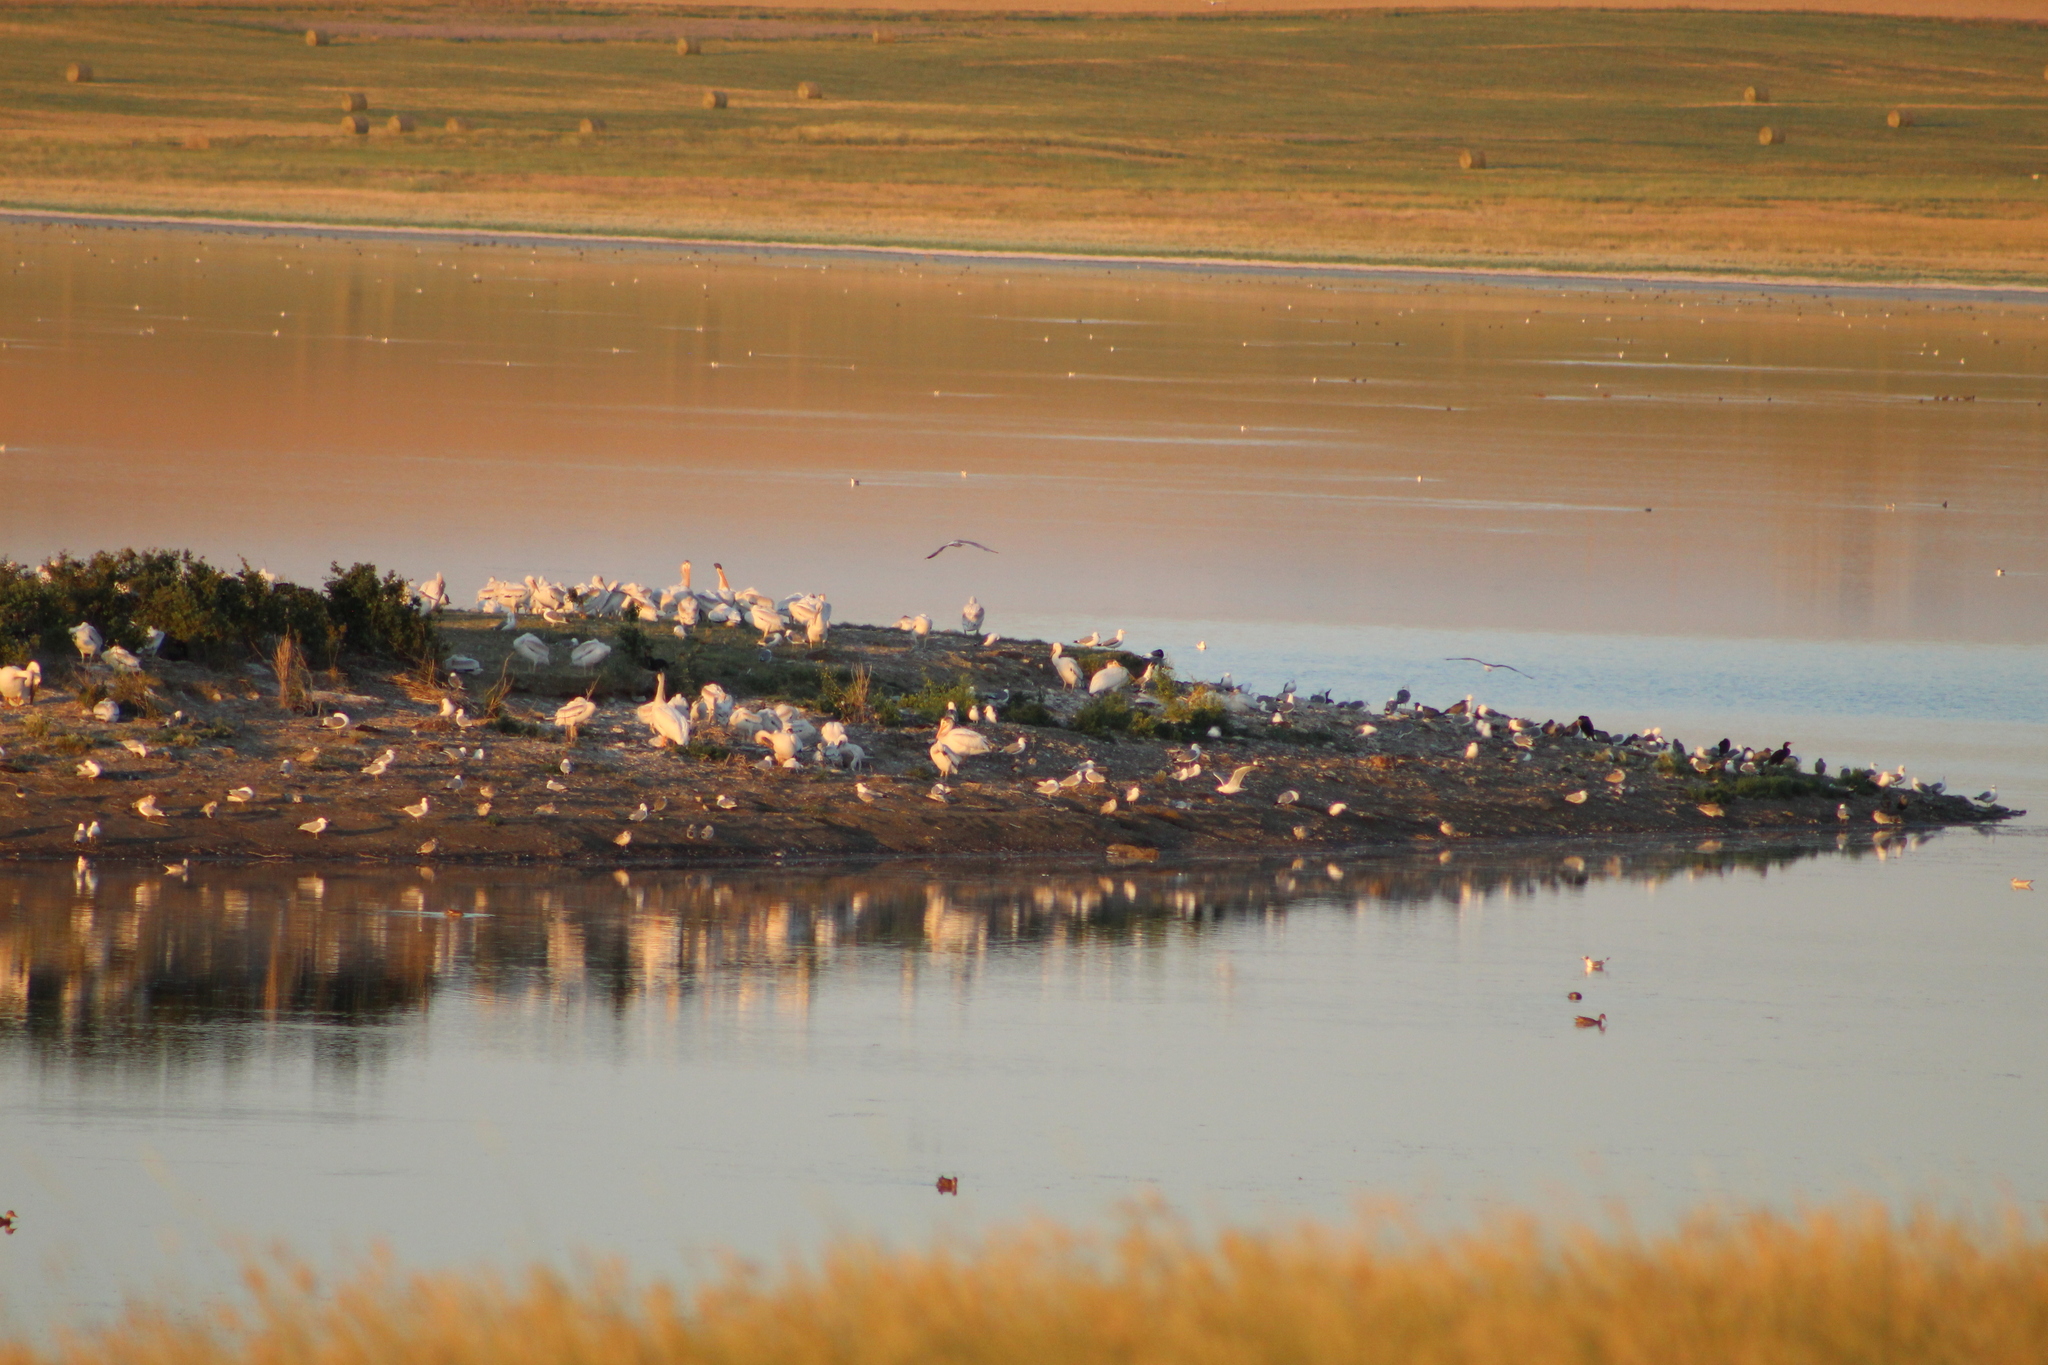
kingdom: Animalia
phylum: Chordata
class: Aves
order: Pelecaniformes
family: Pelecanidae
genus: Pelecanus
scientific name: Pelecanus erythrorhynchos
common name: American white pelican
